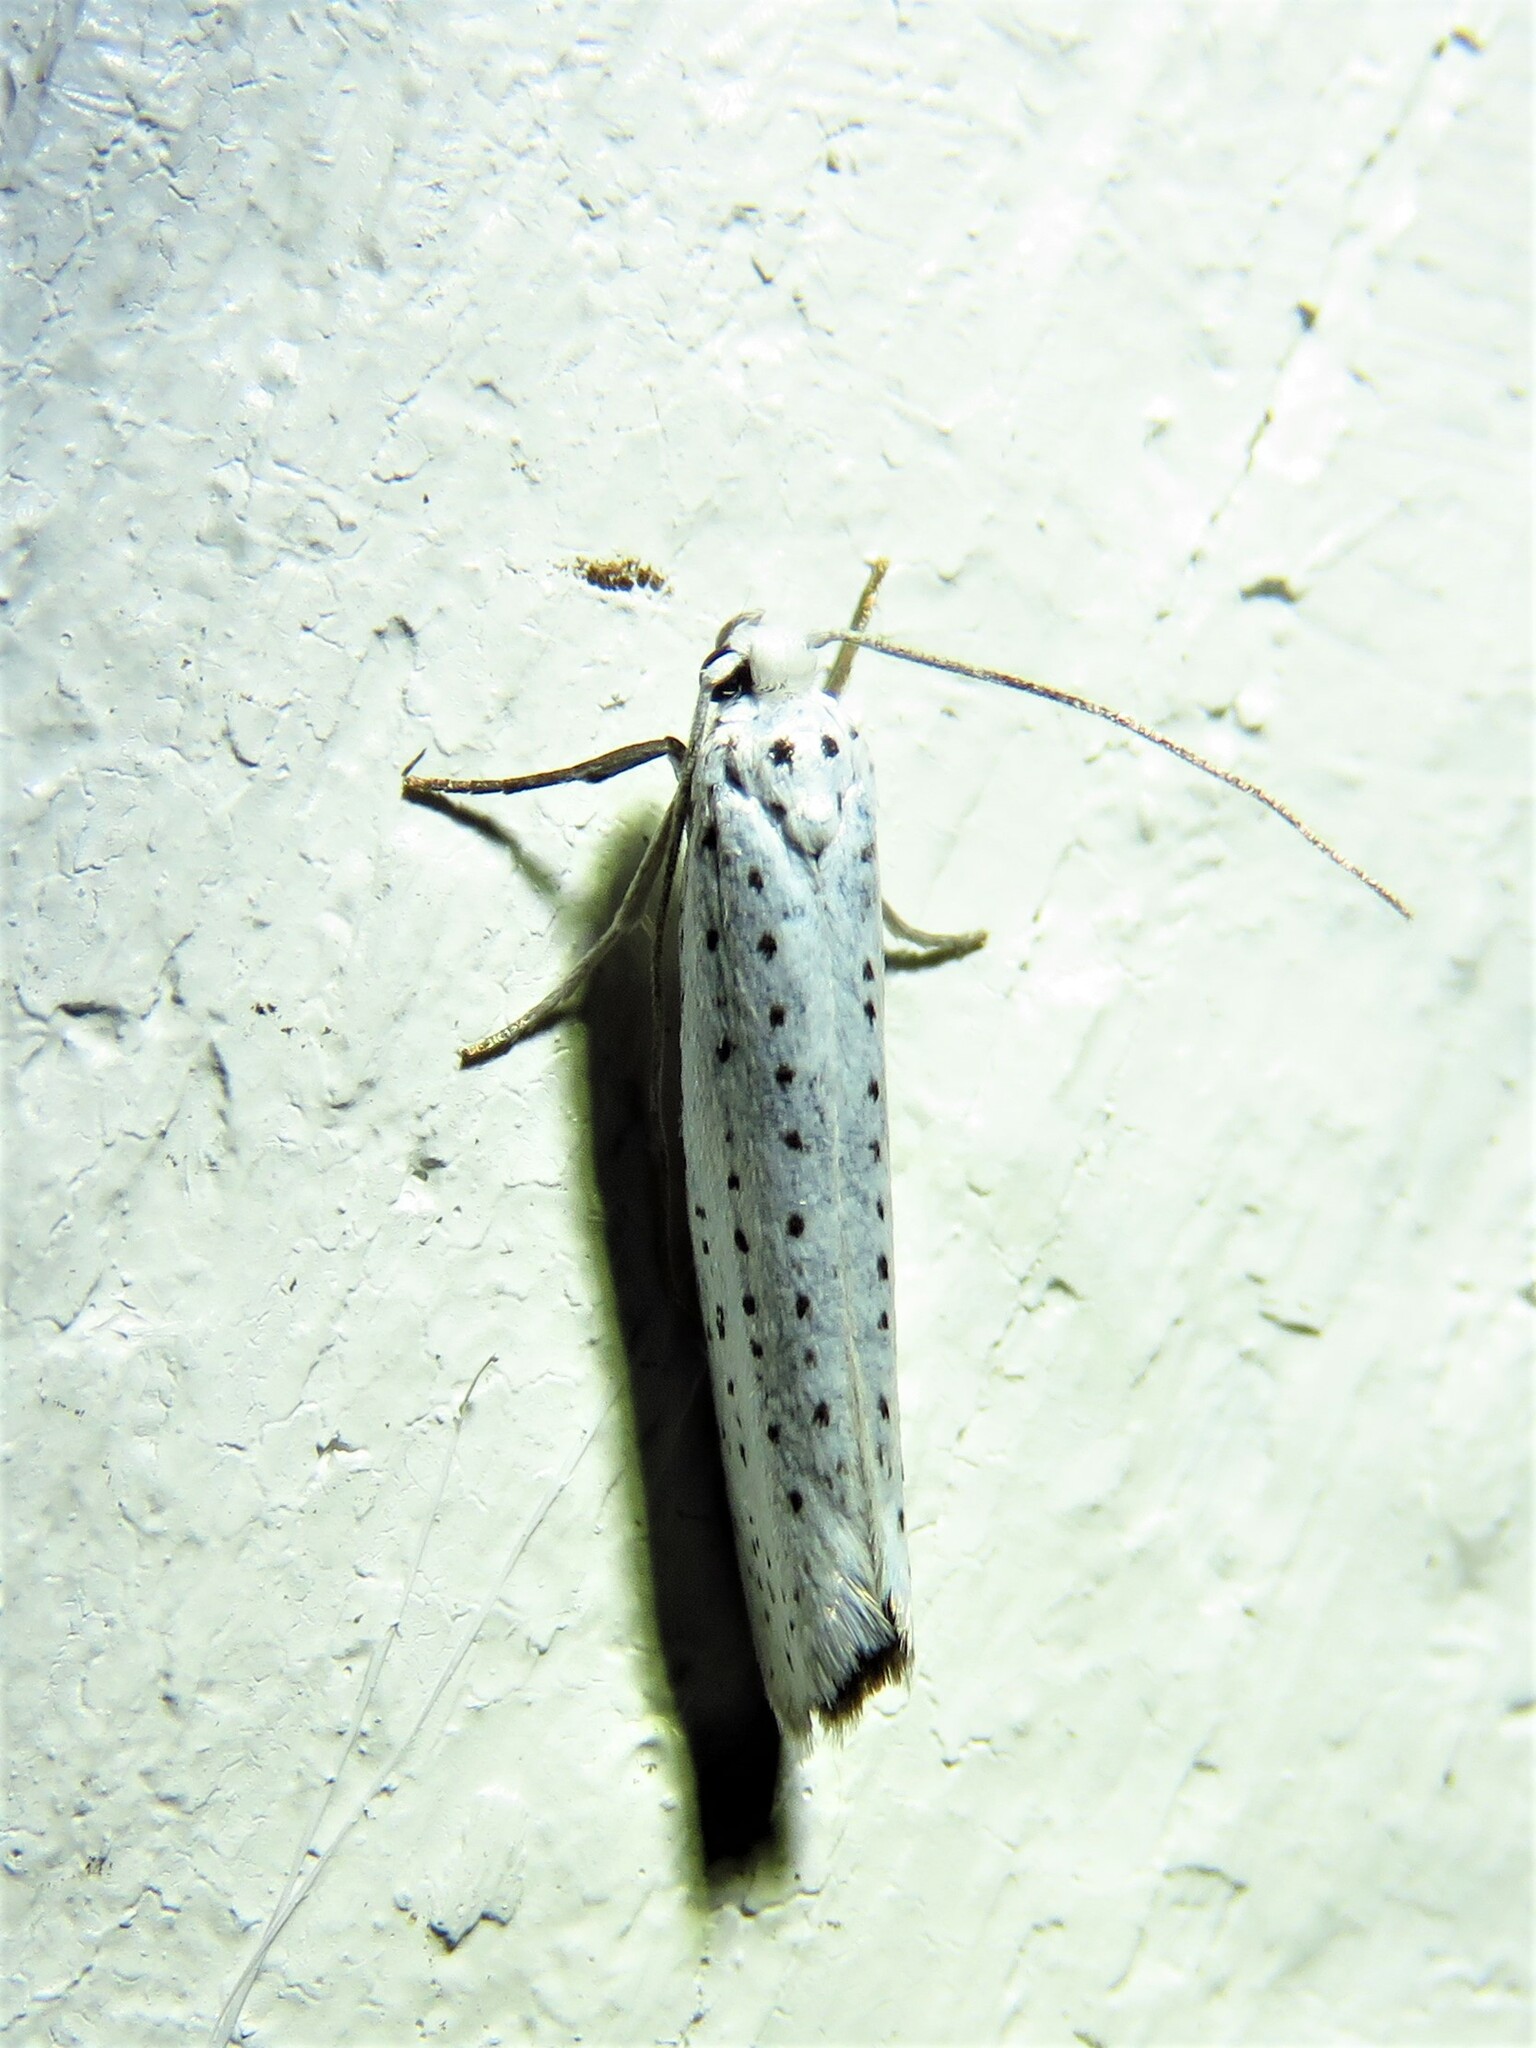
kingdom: Animalia
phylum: Arthropoda
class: Insecta
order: Lepidoptera
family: Yponomeutidae
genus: Yponomeuta
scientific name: Yponomeuta evonymella
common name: Bird-cherry ermine
